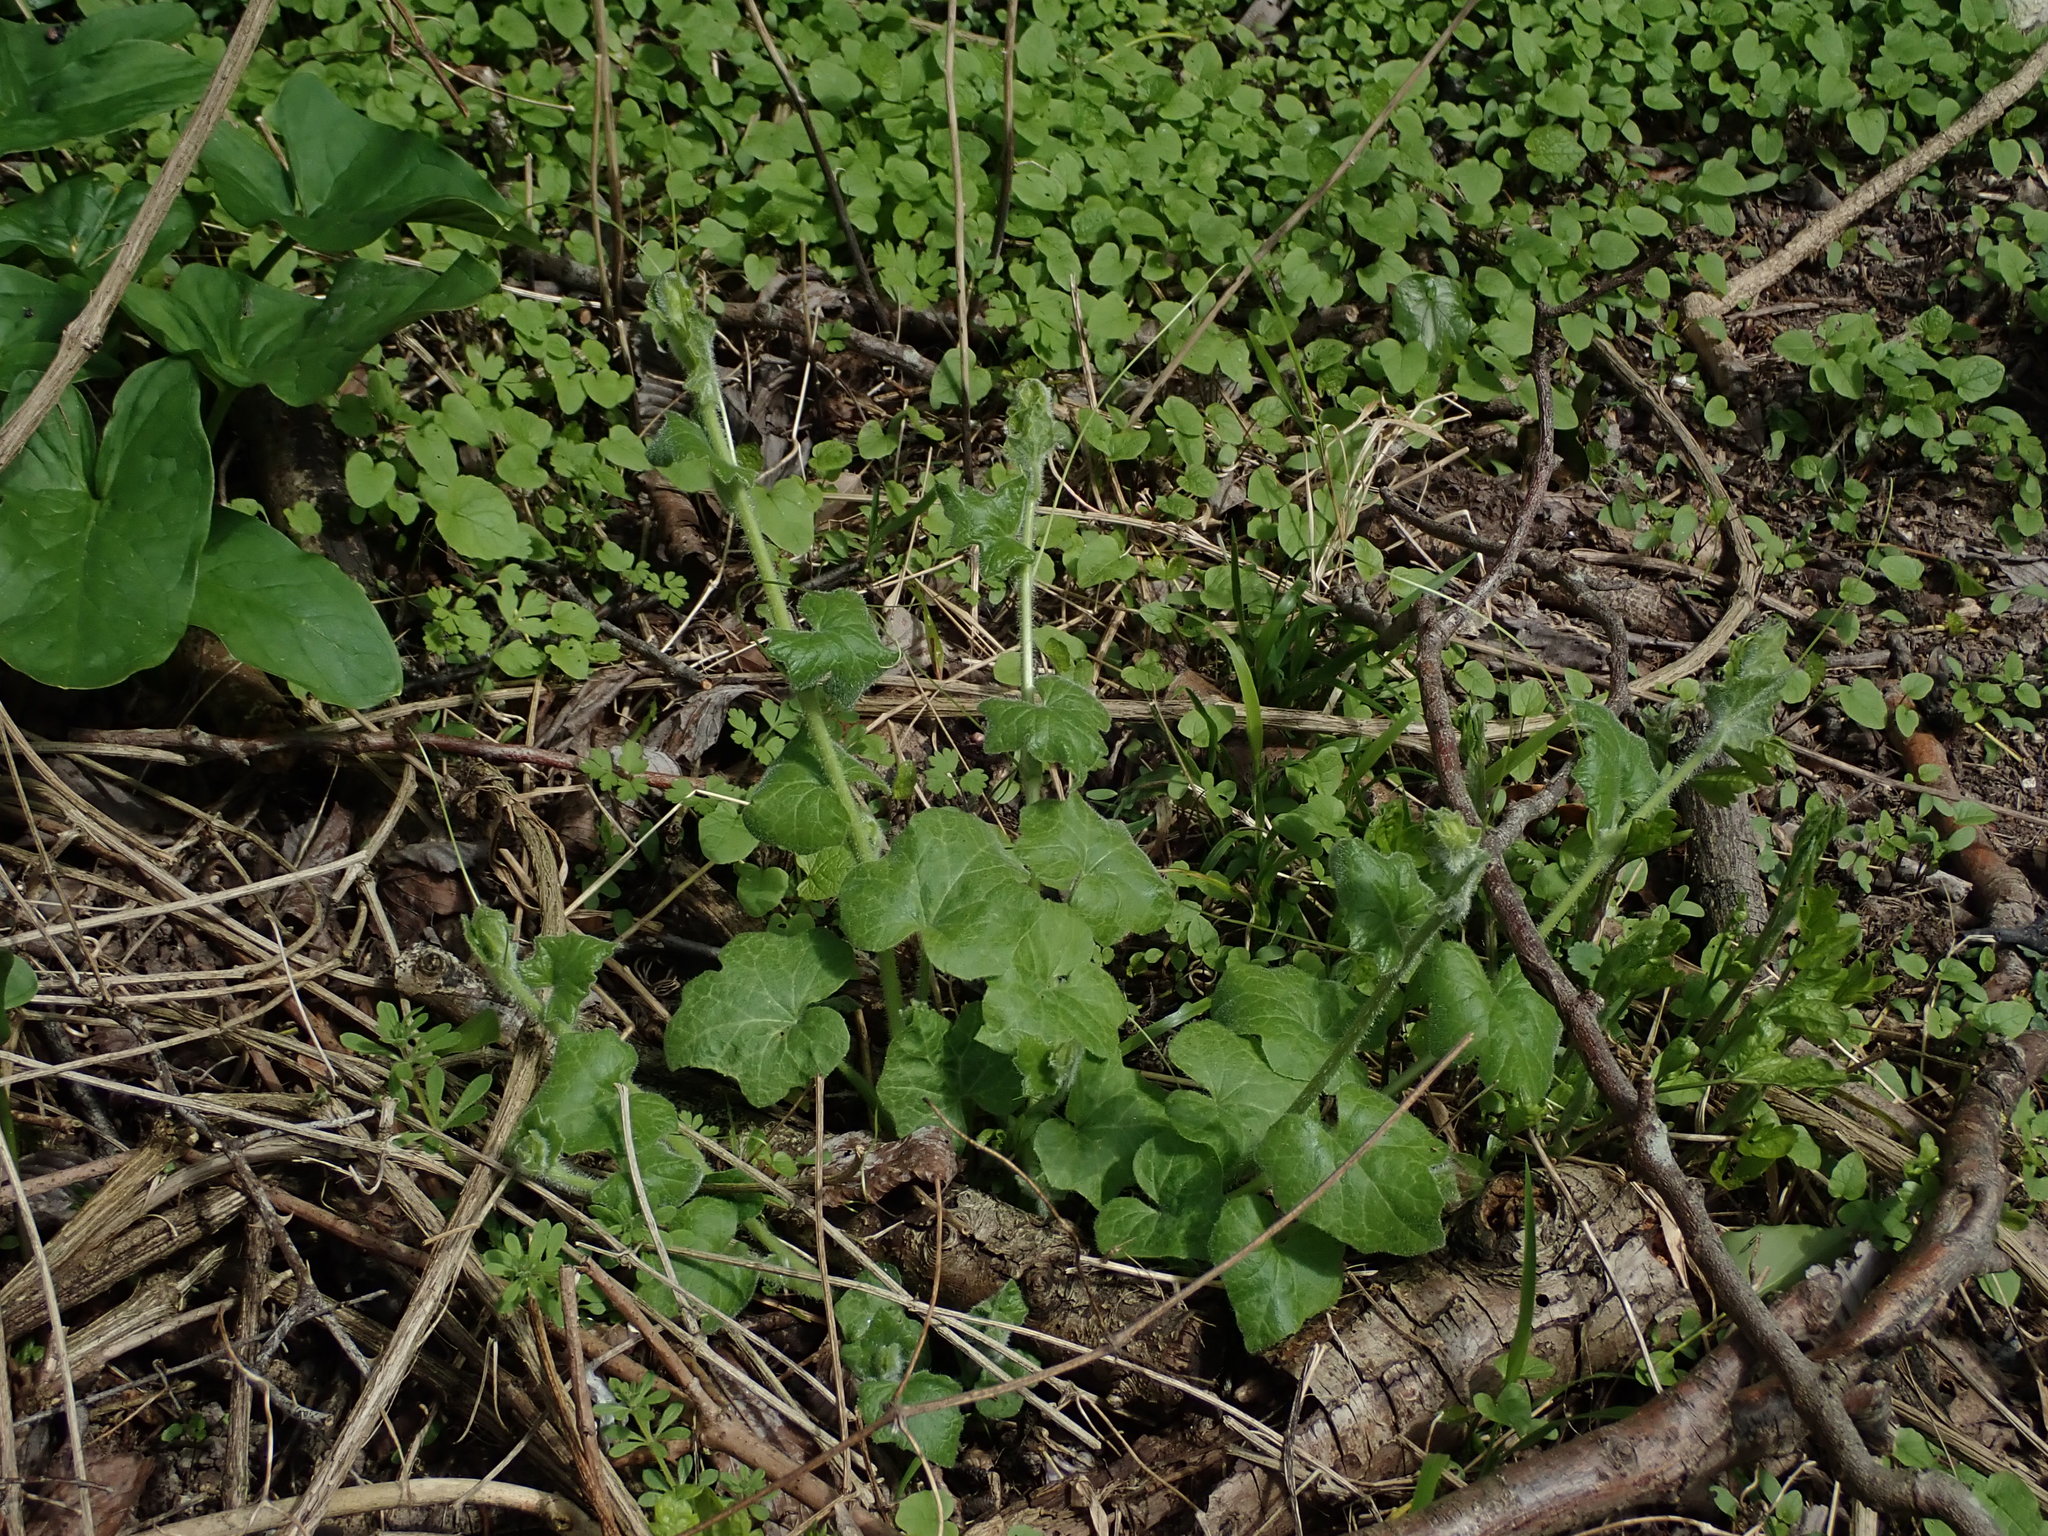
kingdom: Plantae
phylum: Tracheophyta
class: Magnoliopsida
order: Cucurbitales
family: Cucurbitaceae
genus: Bryonia
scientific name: Bryonia dioica
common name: White bryony
